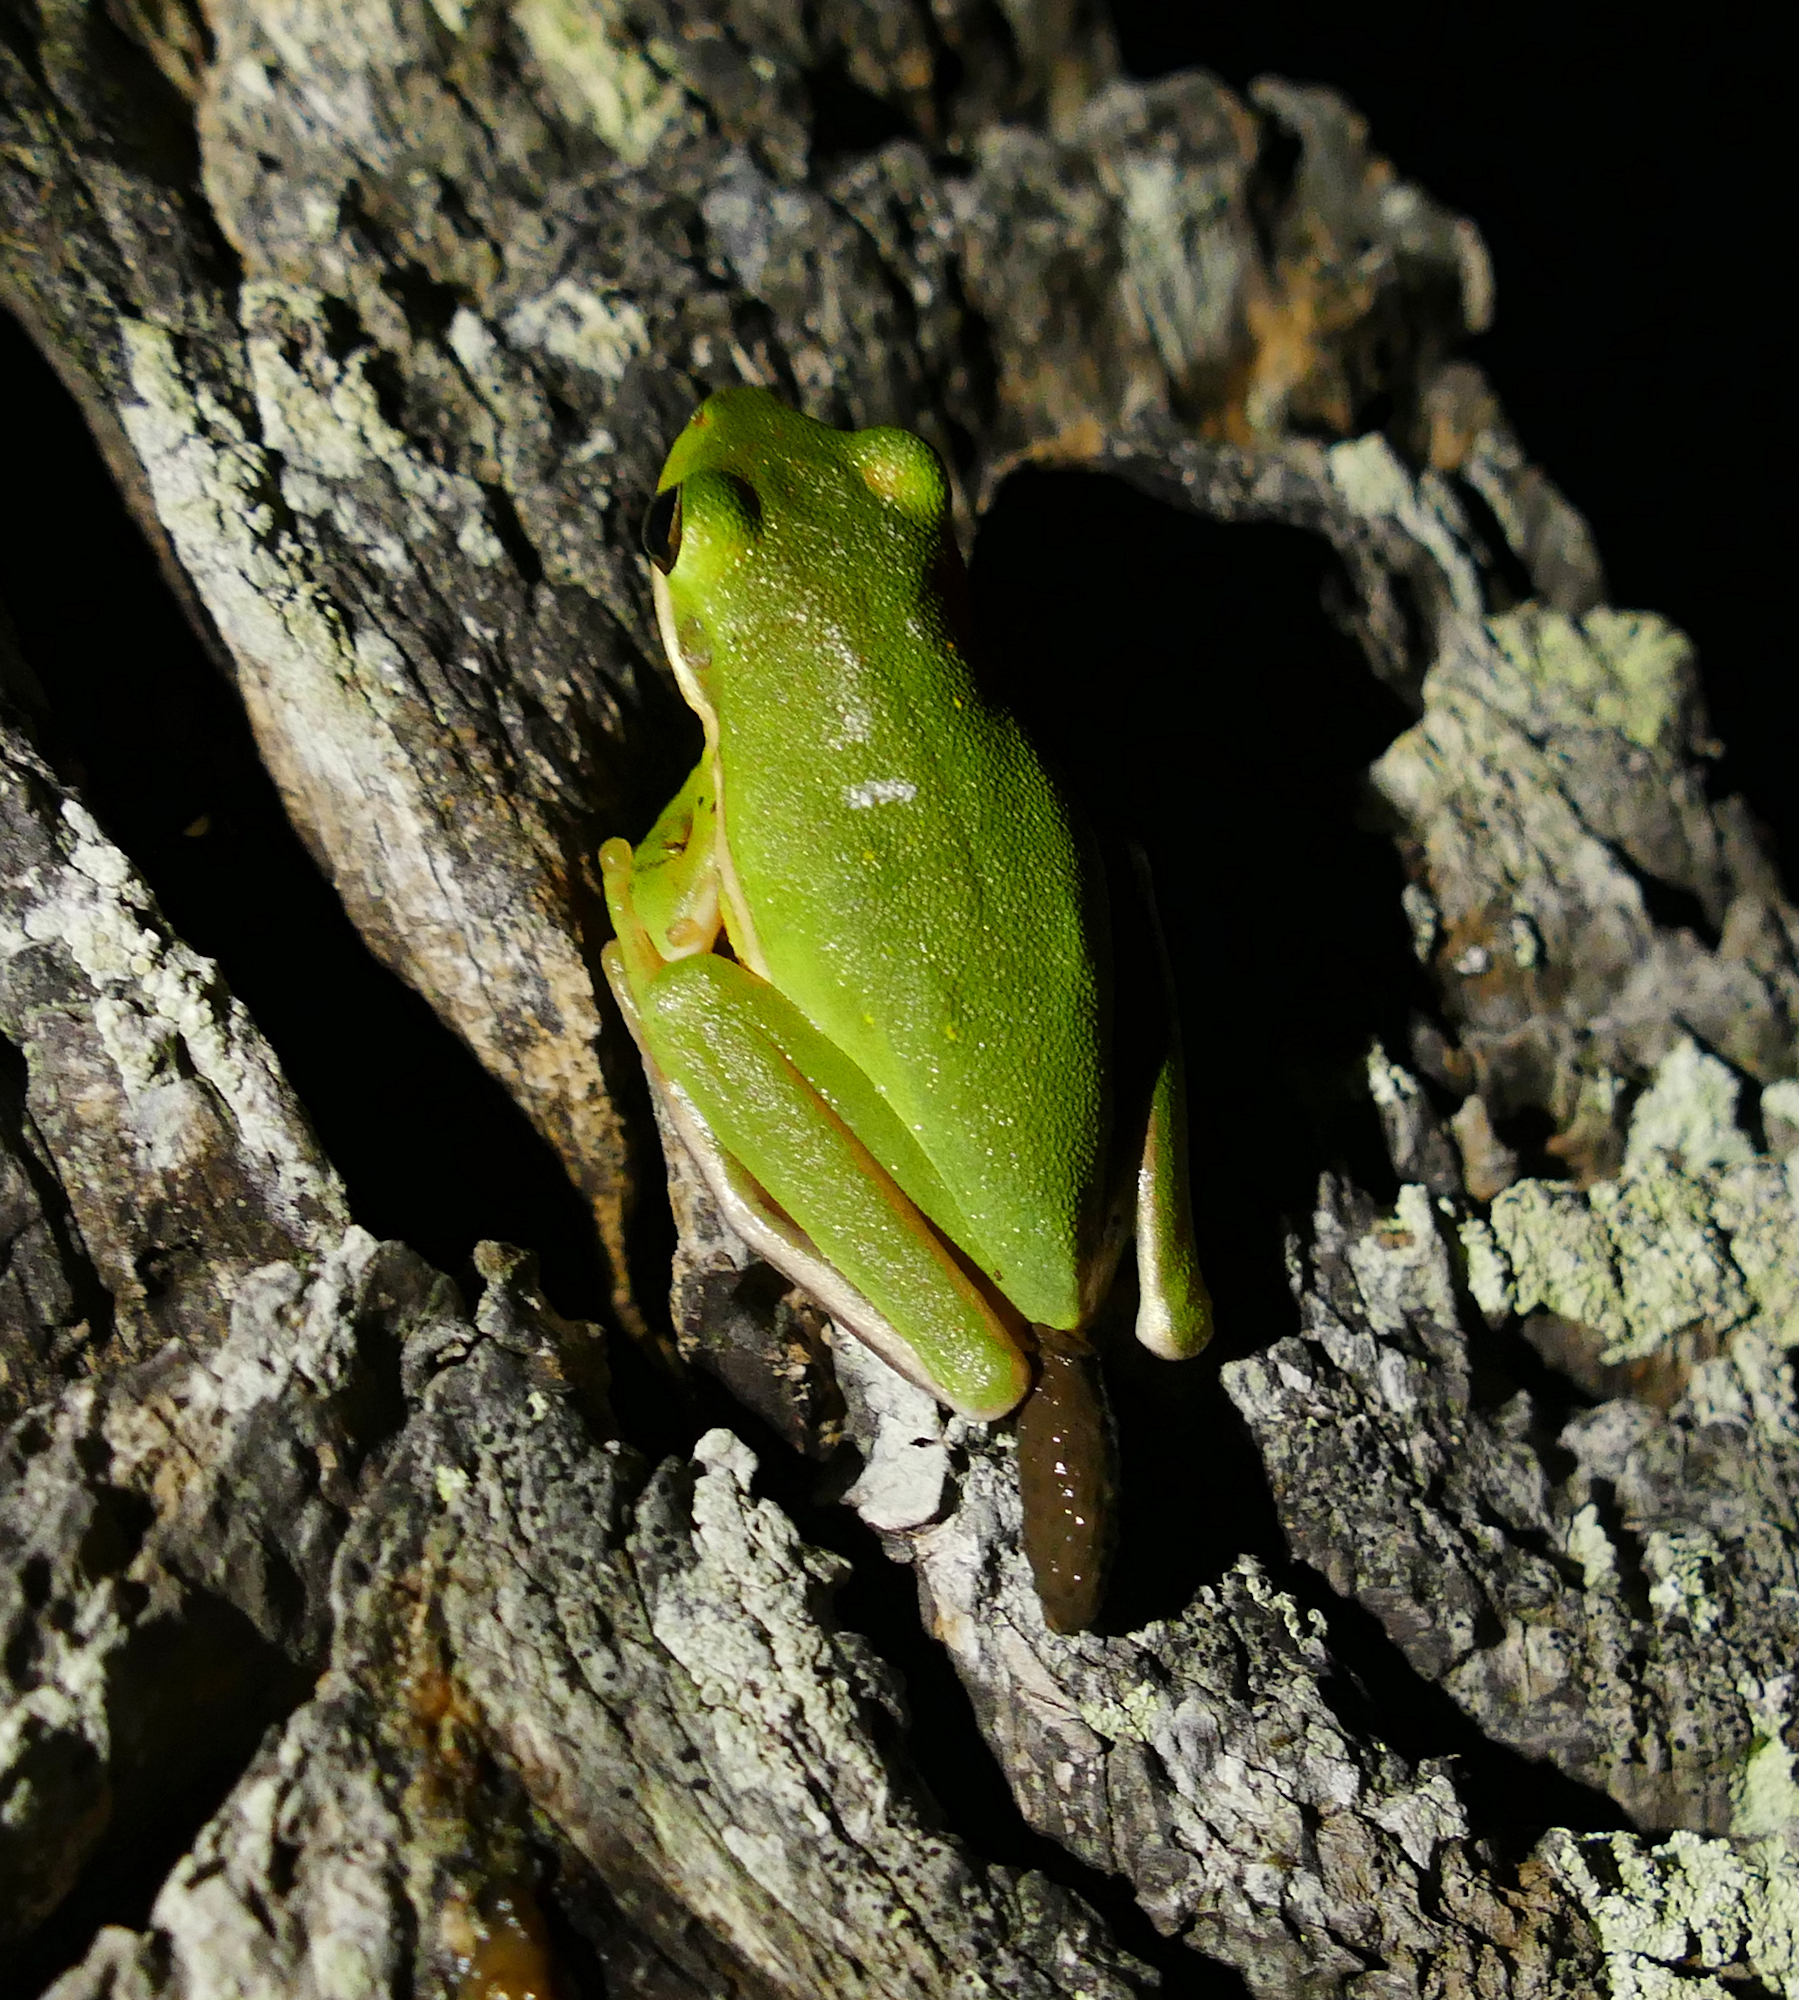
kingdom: Animalia
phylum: Chordata
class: Amphibia
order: Anura
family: Hylidae
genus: Dryophytes
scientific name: Dryophytes cinereus
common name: Green treefrog
